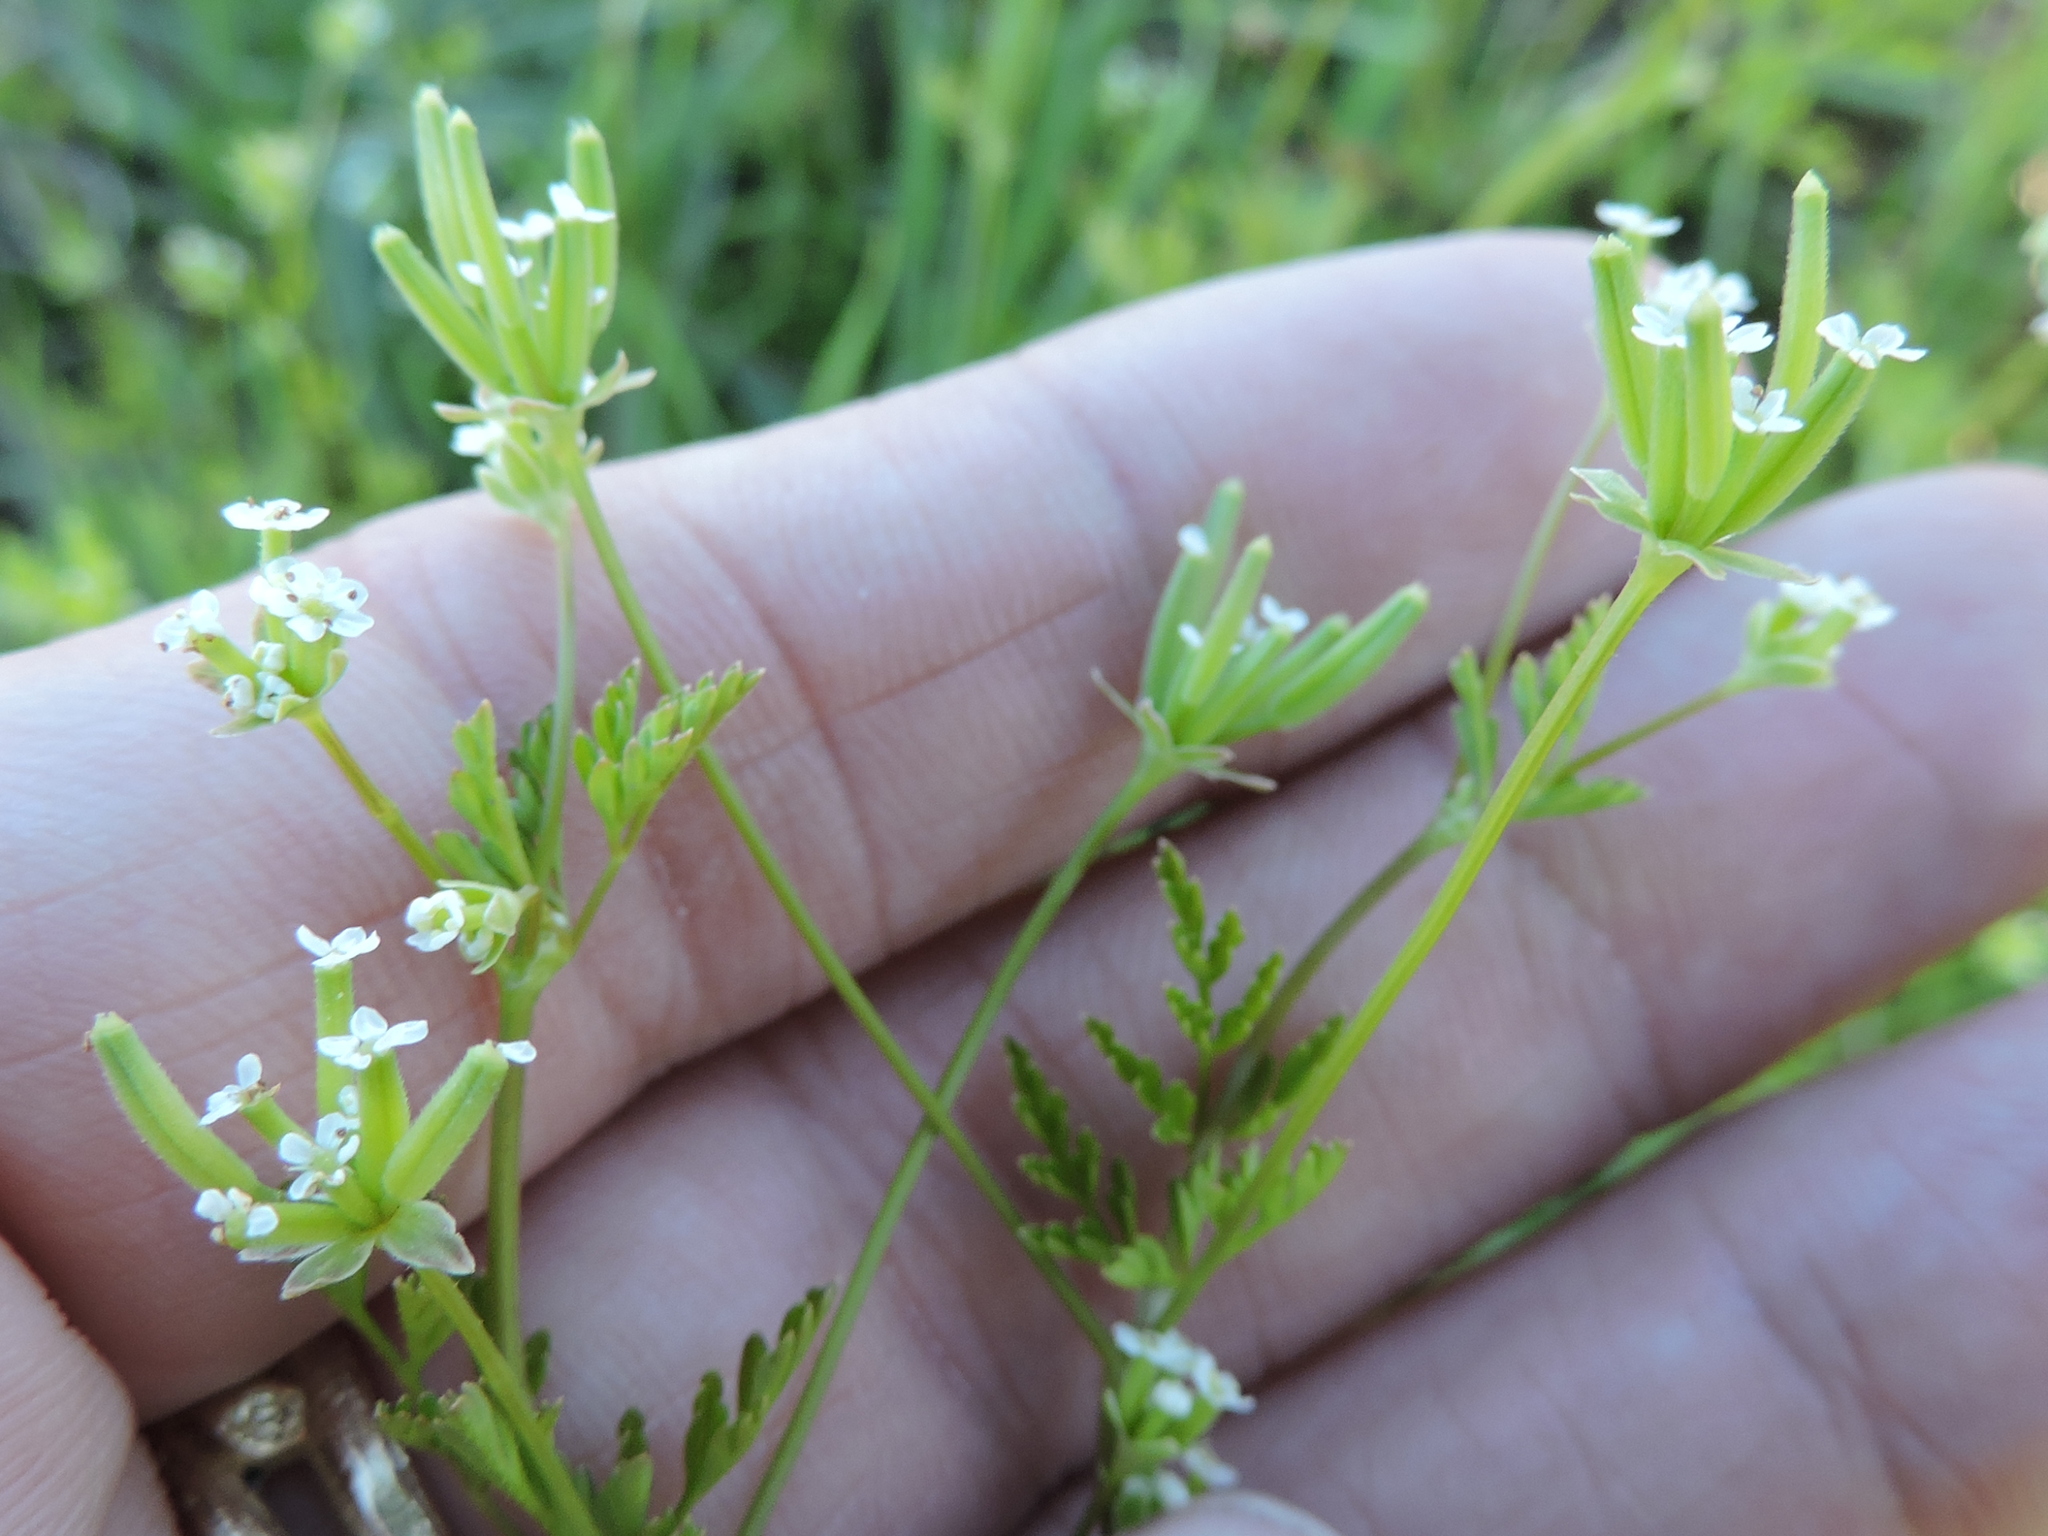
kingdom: Plantae
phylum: Tracheophyta
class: Magnoliopsida
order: Apiales
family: Apiaceae
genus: Chaerophyllum
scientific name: Chaerophyllum tainturieri
